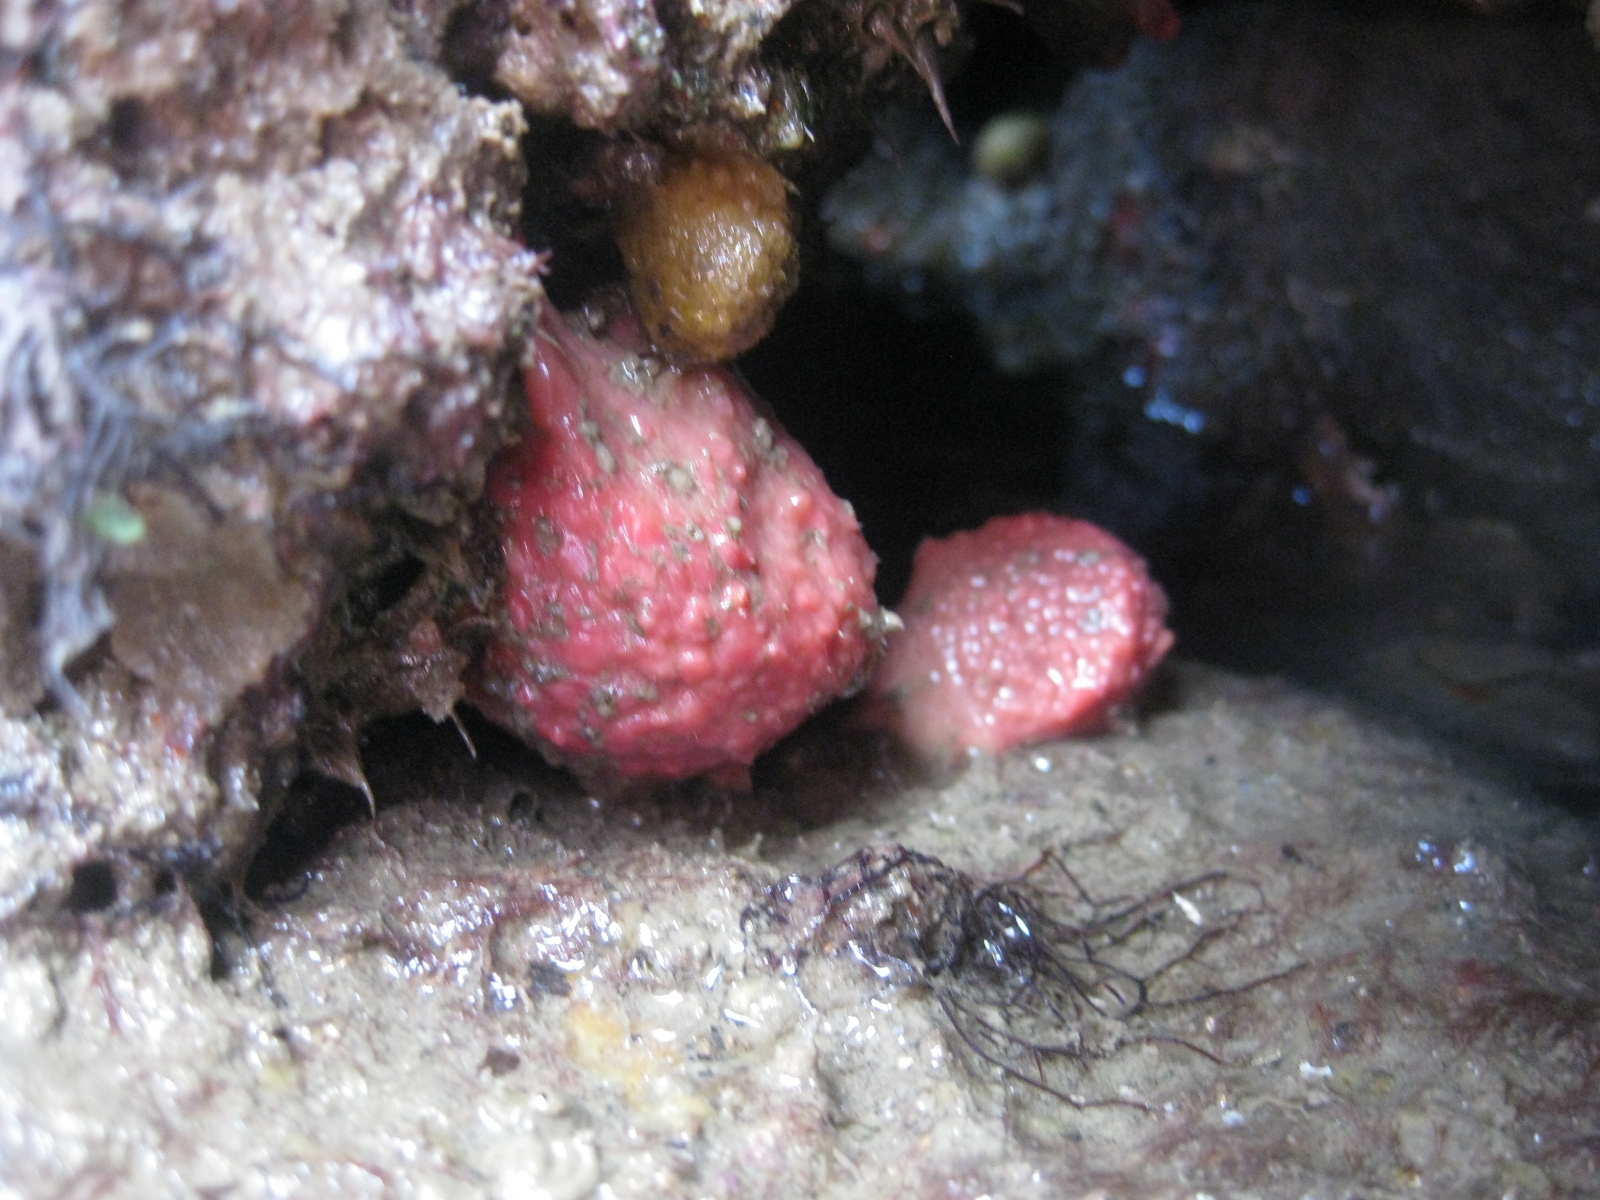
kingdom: Animalia
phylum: Porifera
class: Demospongiae
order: Tethyida
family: Tethyidae
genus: Tethya
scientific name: Tethya bergquistae
